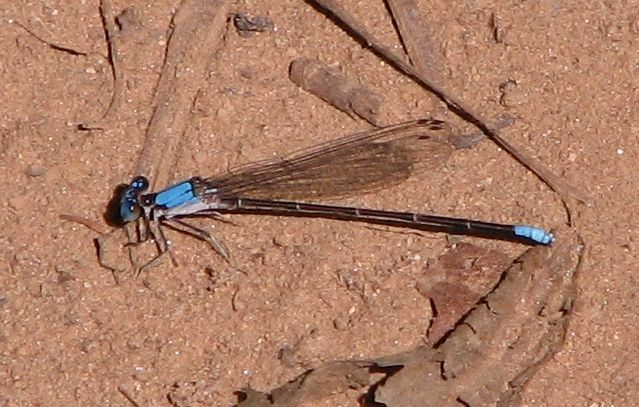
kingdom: Animalia
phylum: Arthropoda
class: Insecta
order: Odonata
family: Coenagrionidae
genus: Argia
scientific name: Argia apicalis
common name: Blue-fronted dancer
